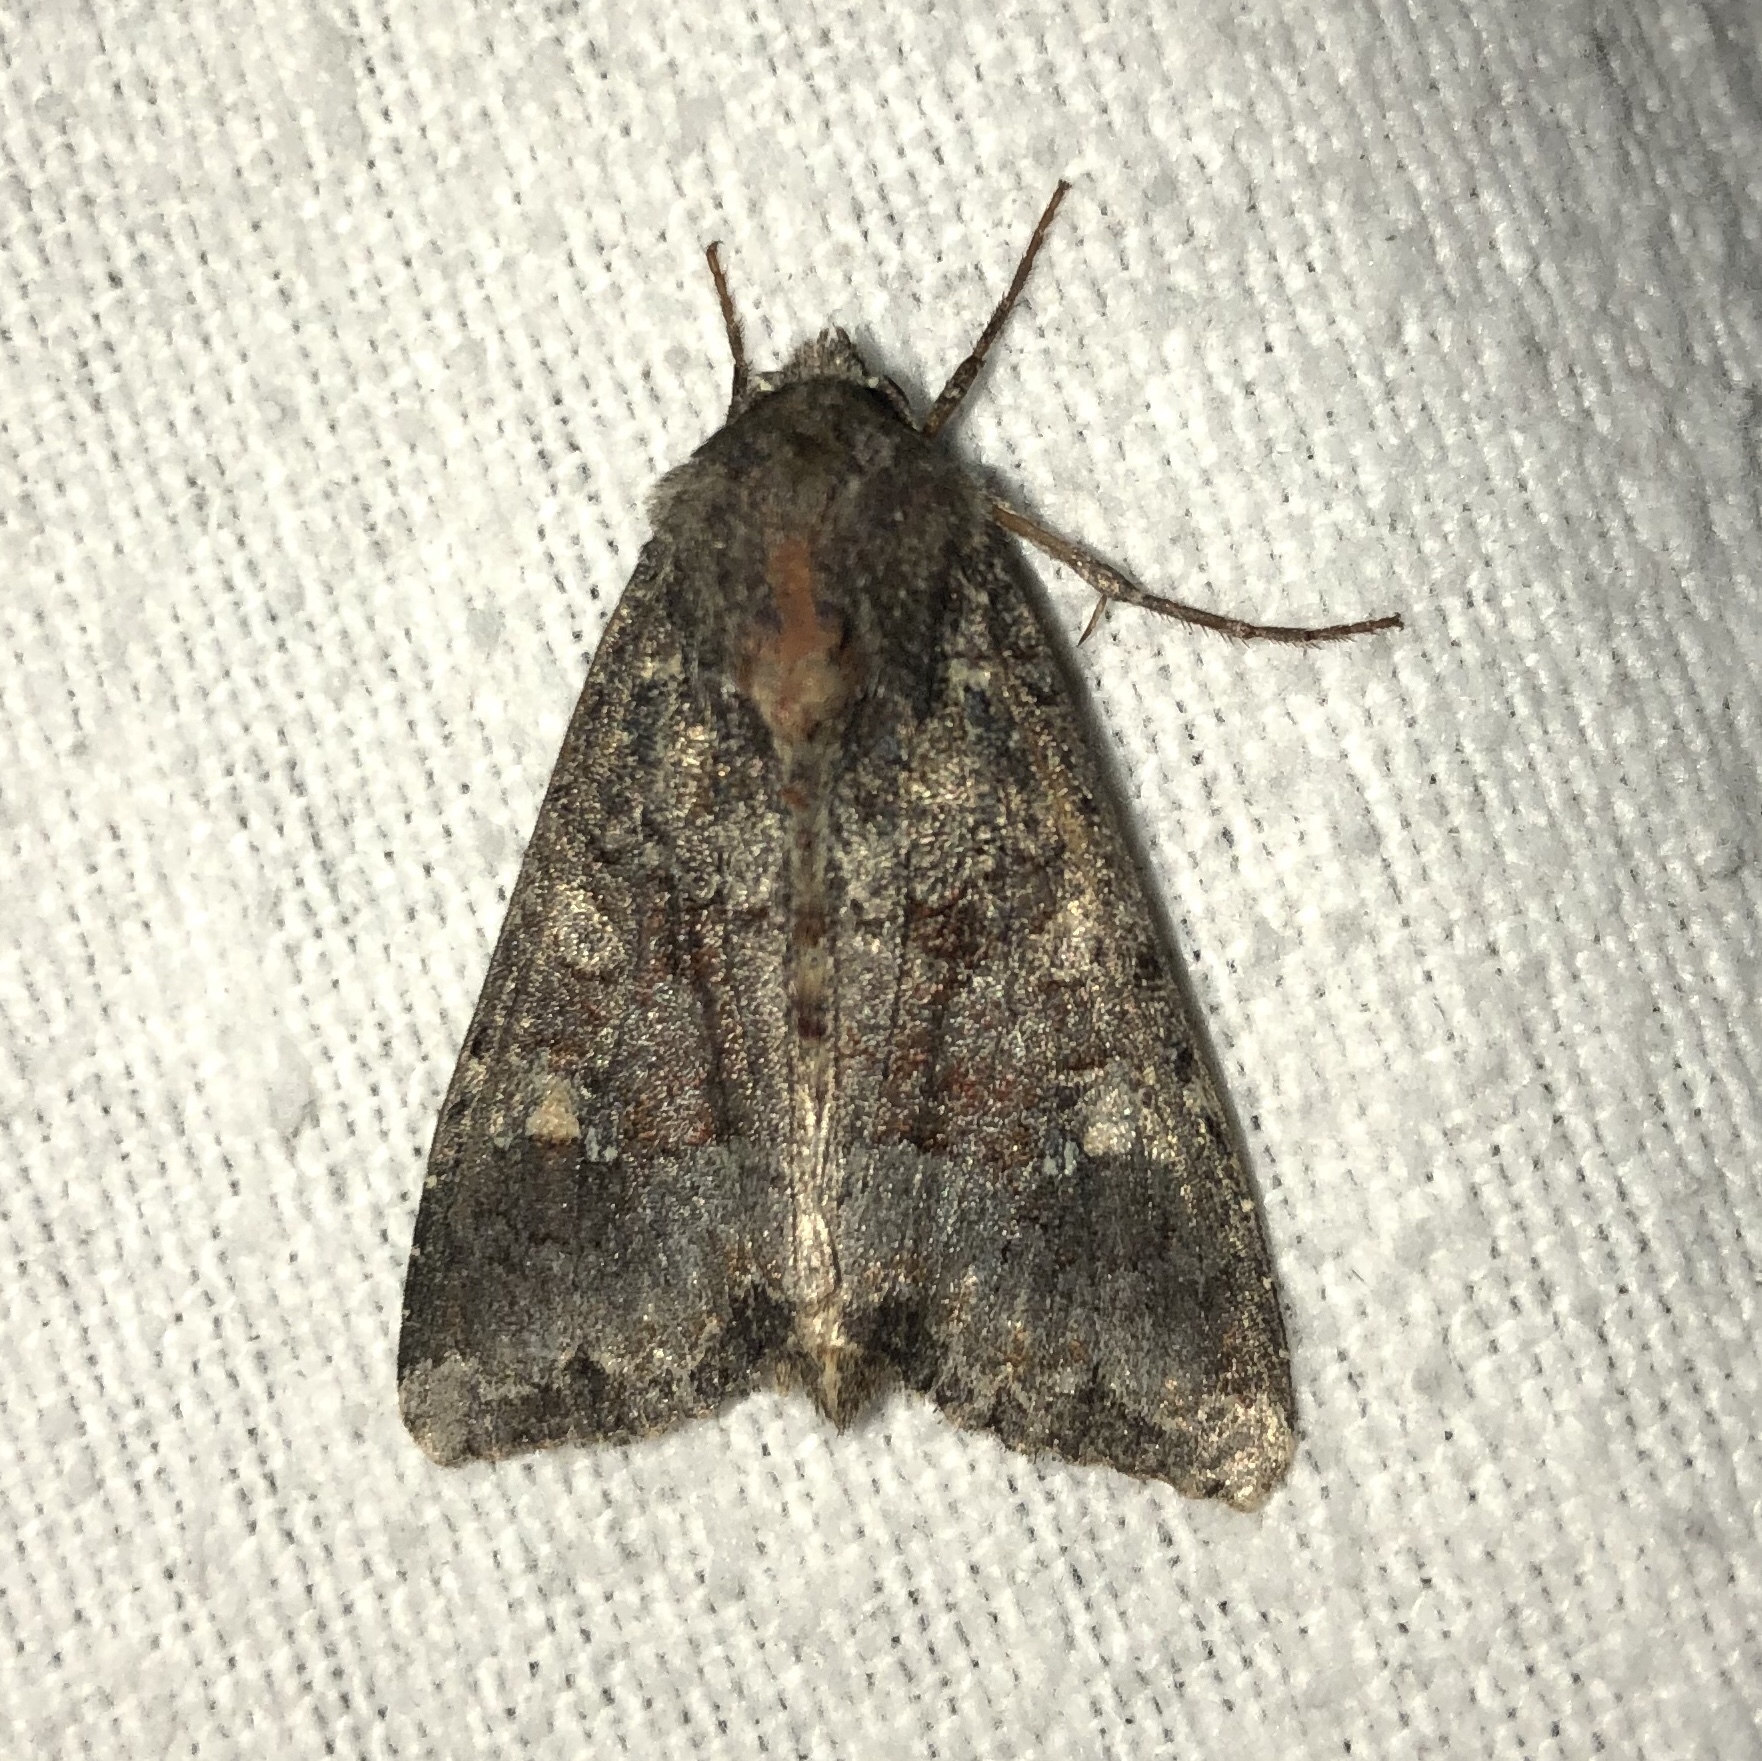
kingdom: Animalia
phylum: Arthropoda
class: Insecta
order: Lepidoptera
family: Noctuidae
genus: Apamea
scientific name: Apamea amputatrix
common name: Yellow-headed cutworm moth
